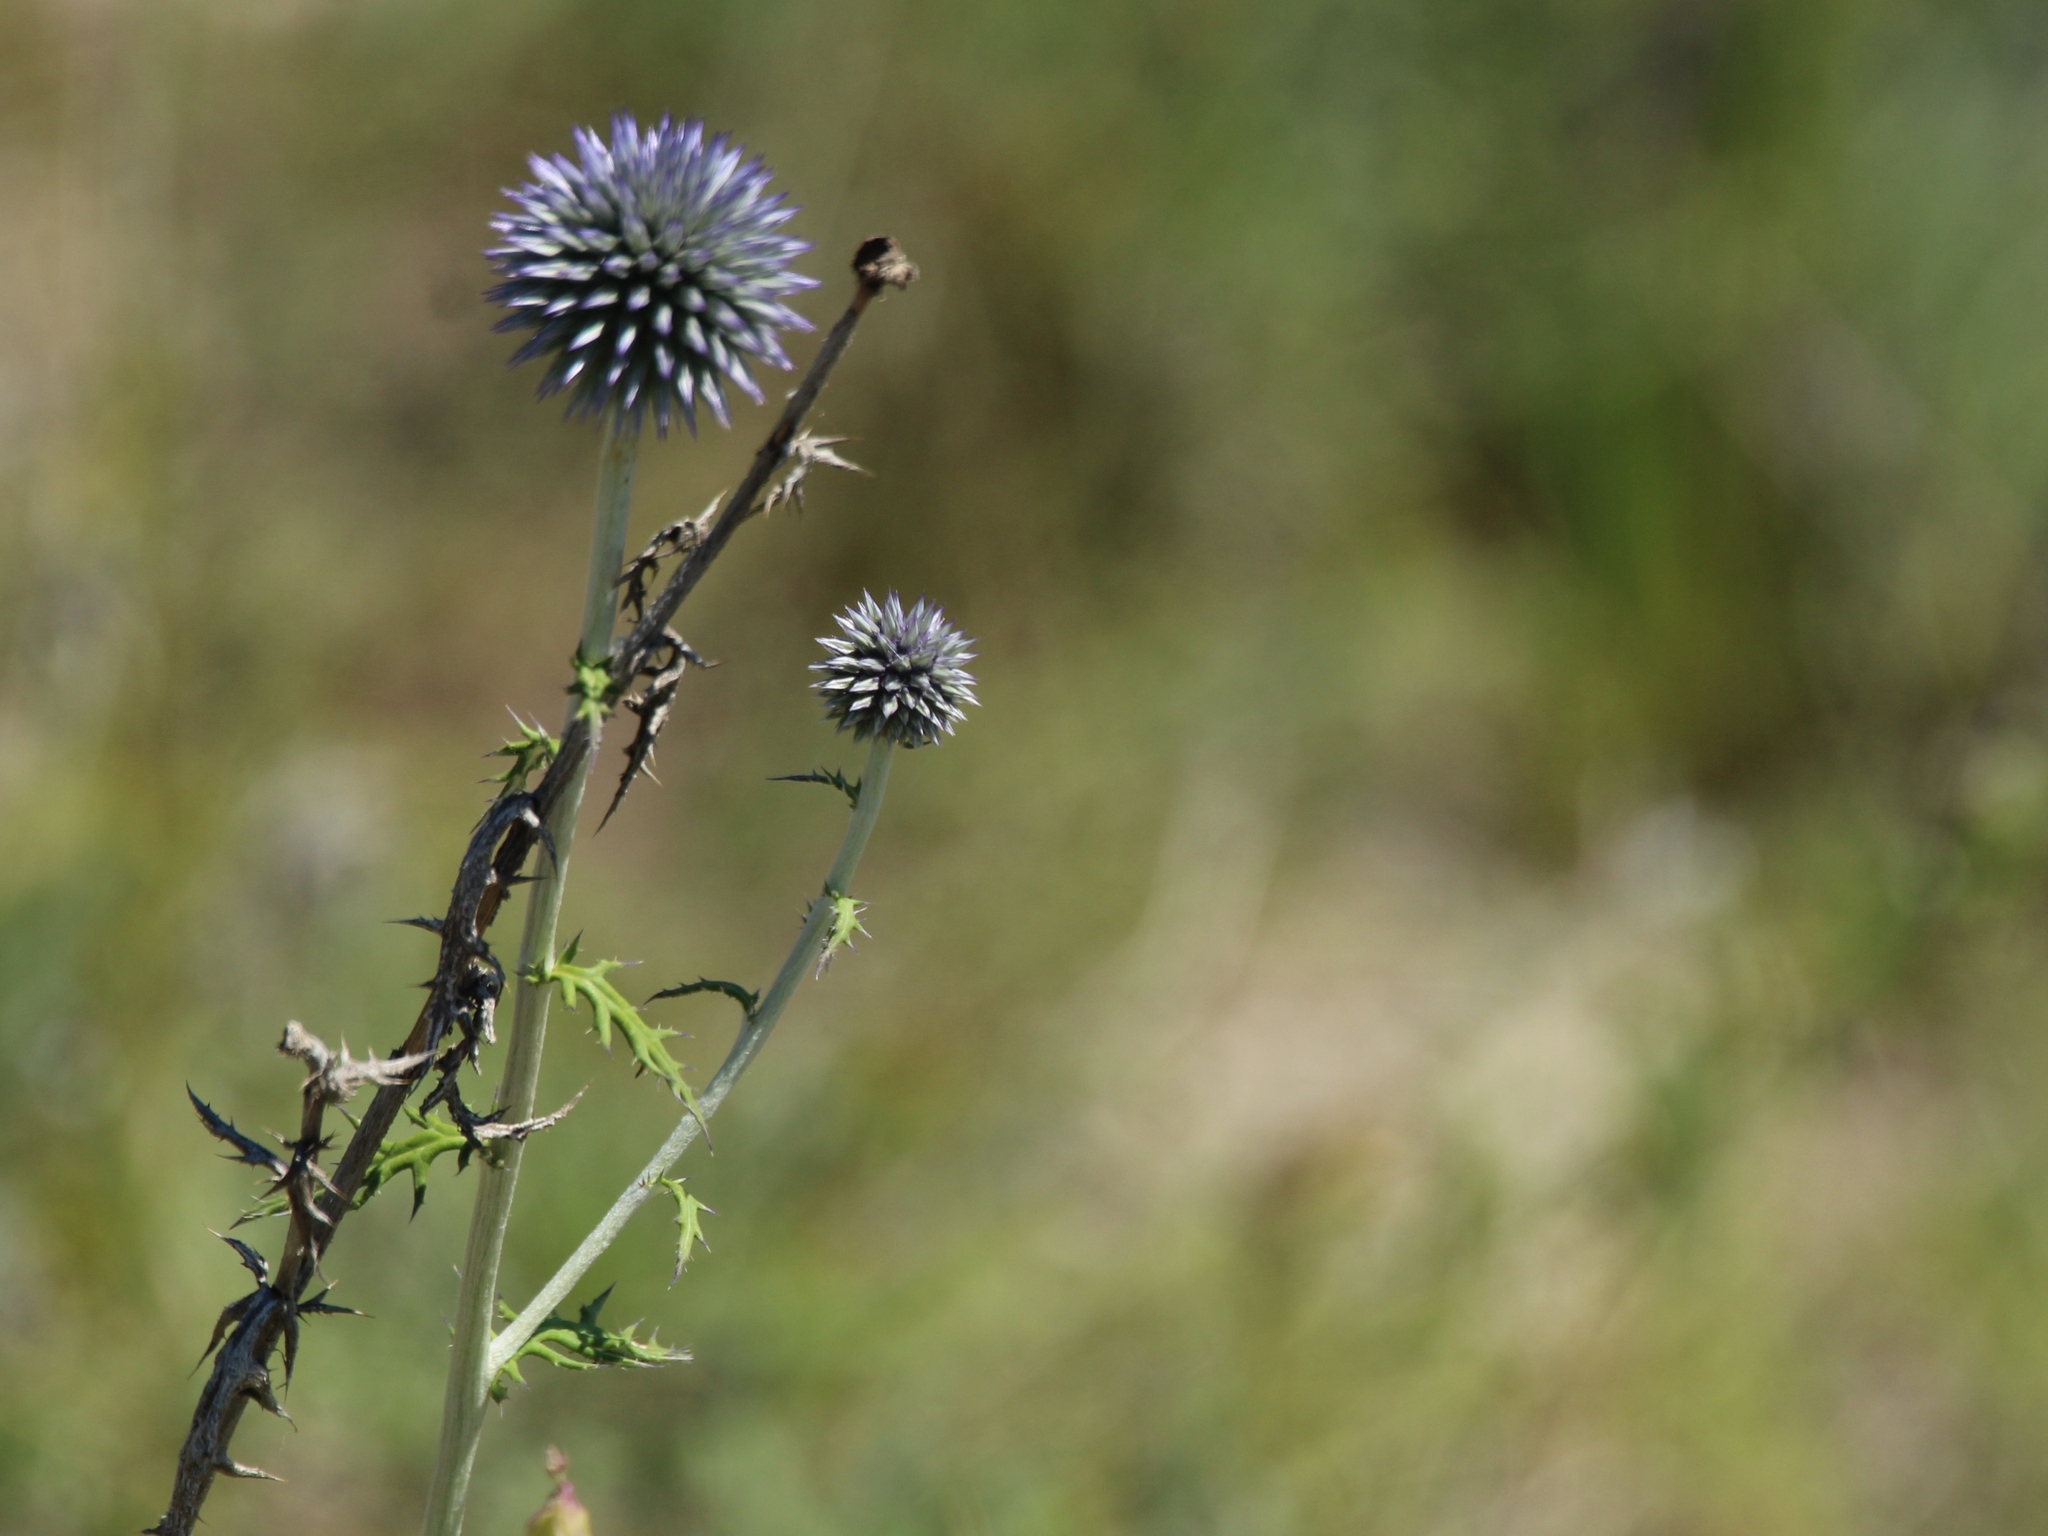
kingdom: Plantae
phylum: Tracheophyta
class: Magnoliopsida
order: Asterales
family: Asteraceae
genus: Echinops
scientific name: Echinops ritro
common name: Globe thistle
